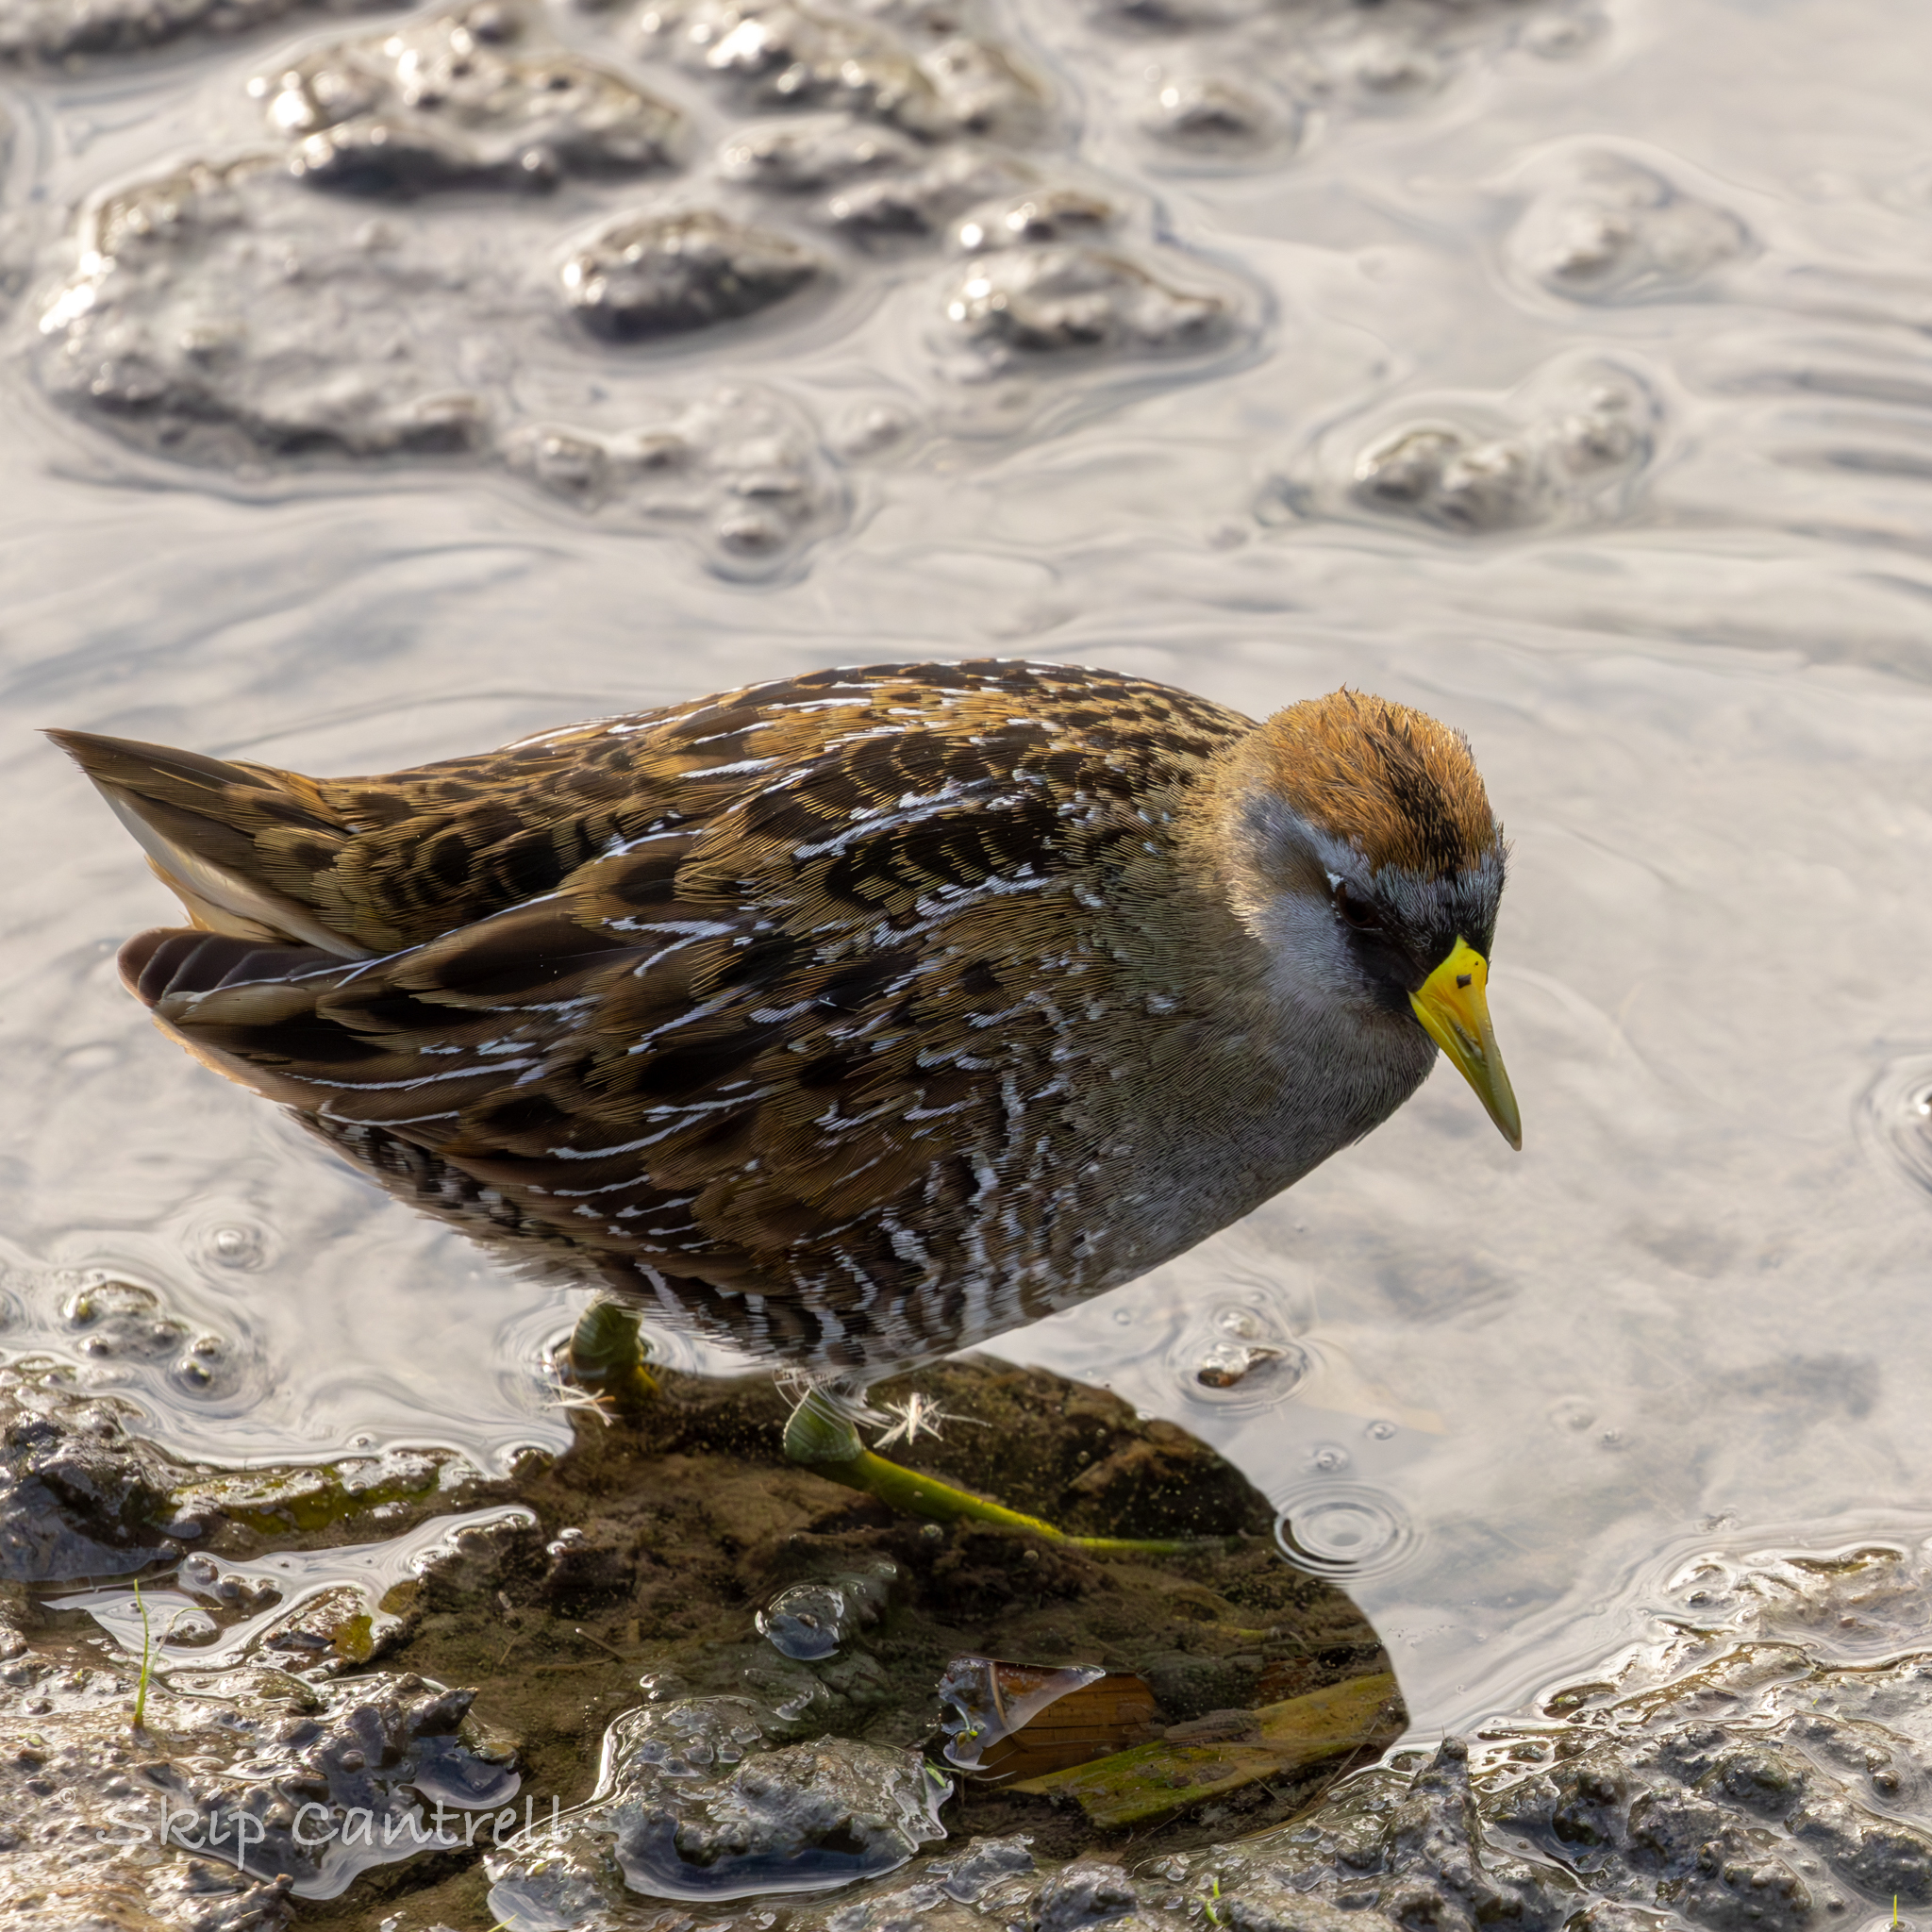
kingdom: Animalia
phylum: Chordata
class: Aves
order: Gruiformes
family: Rallidae
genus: Porzana
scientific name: Porzana carolina
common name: Sora
